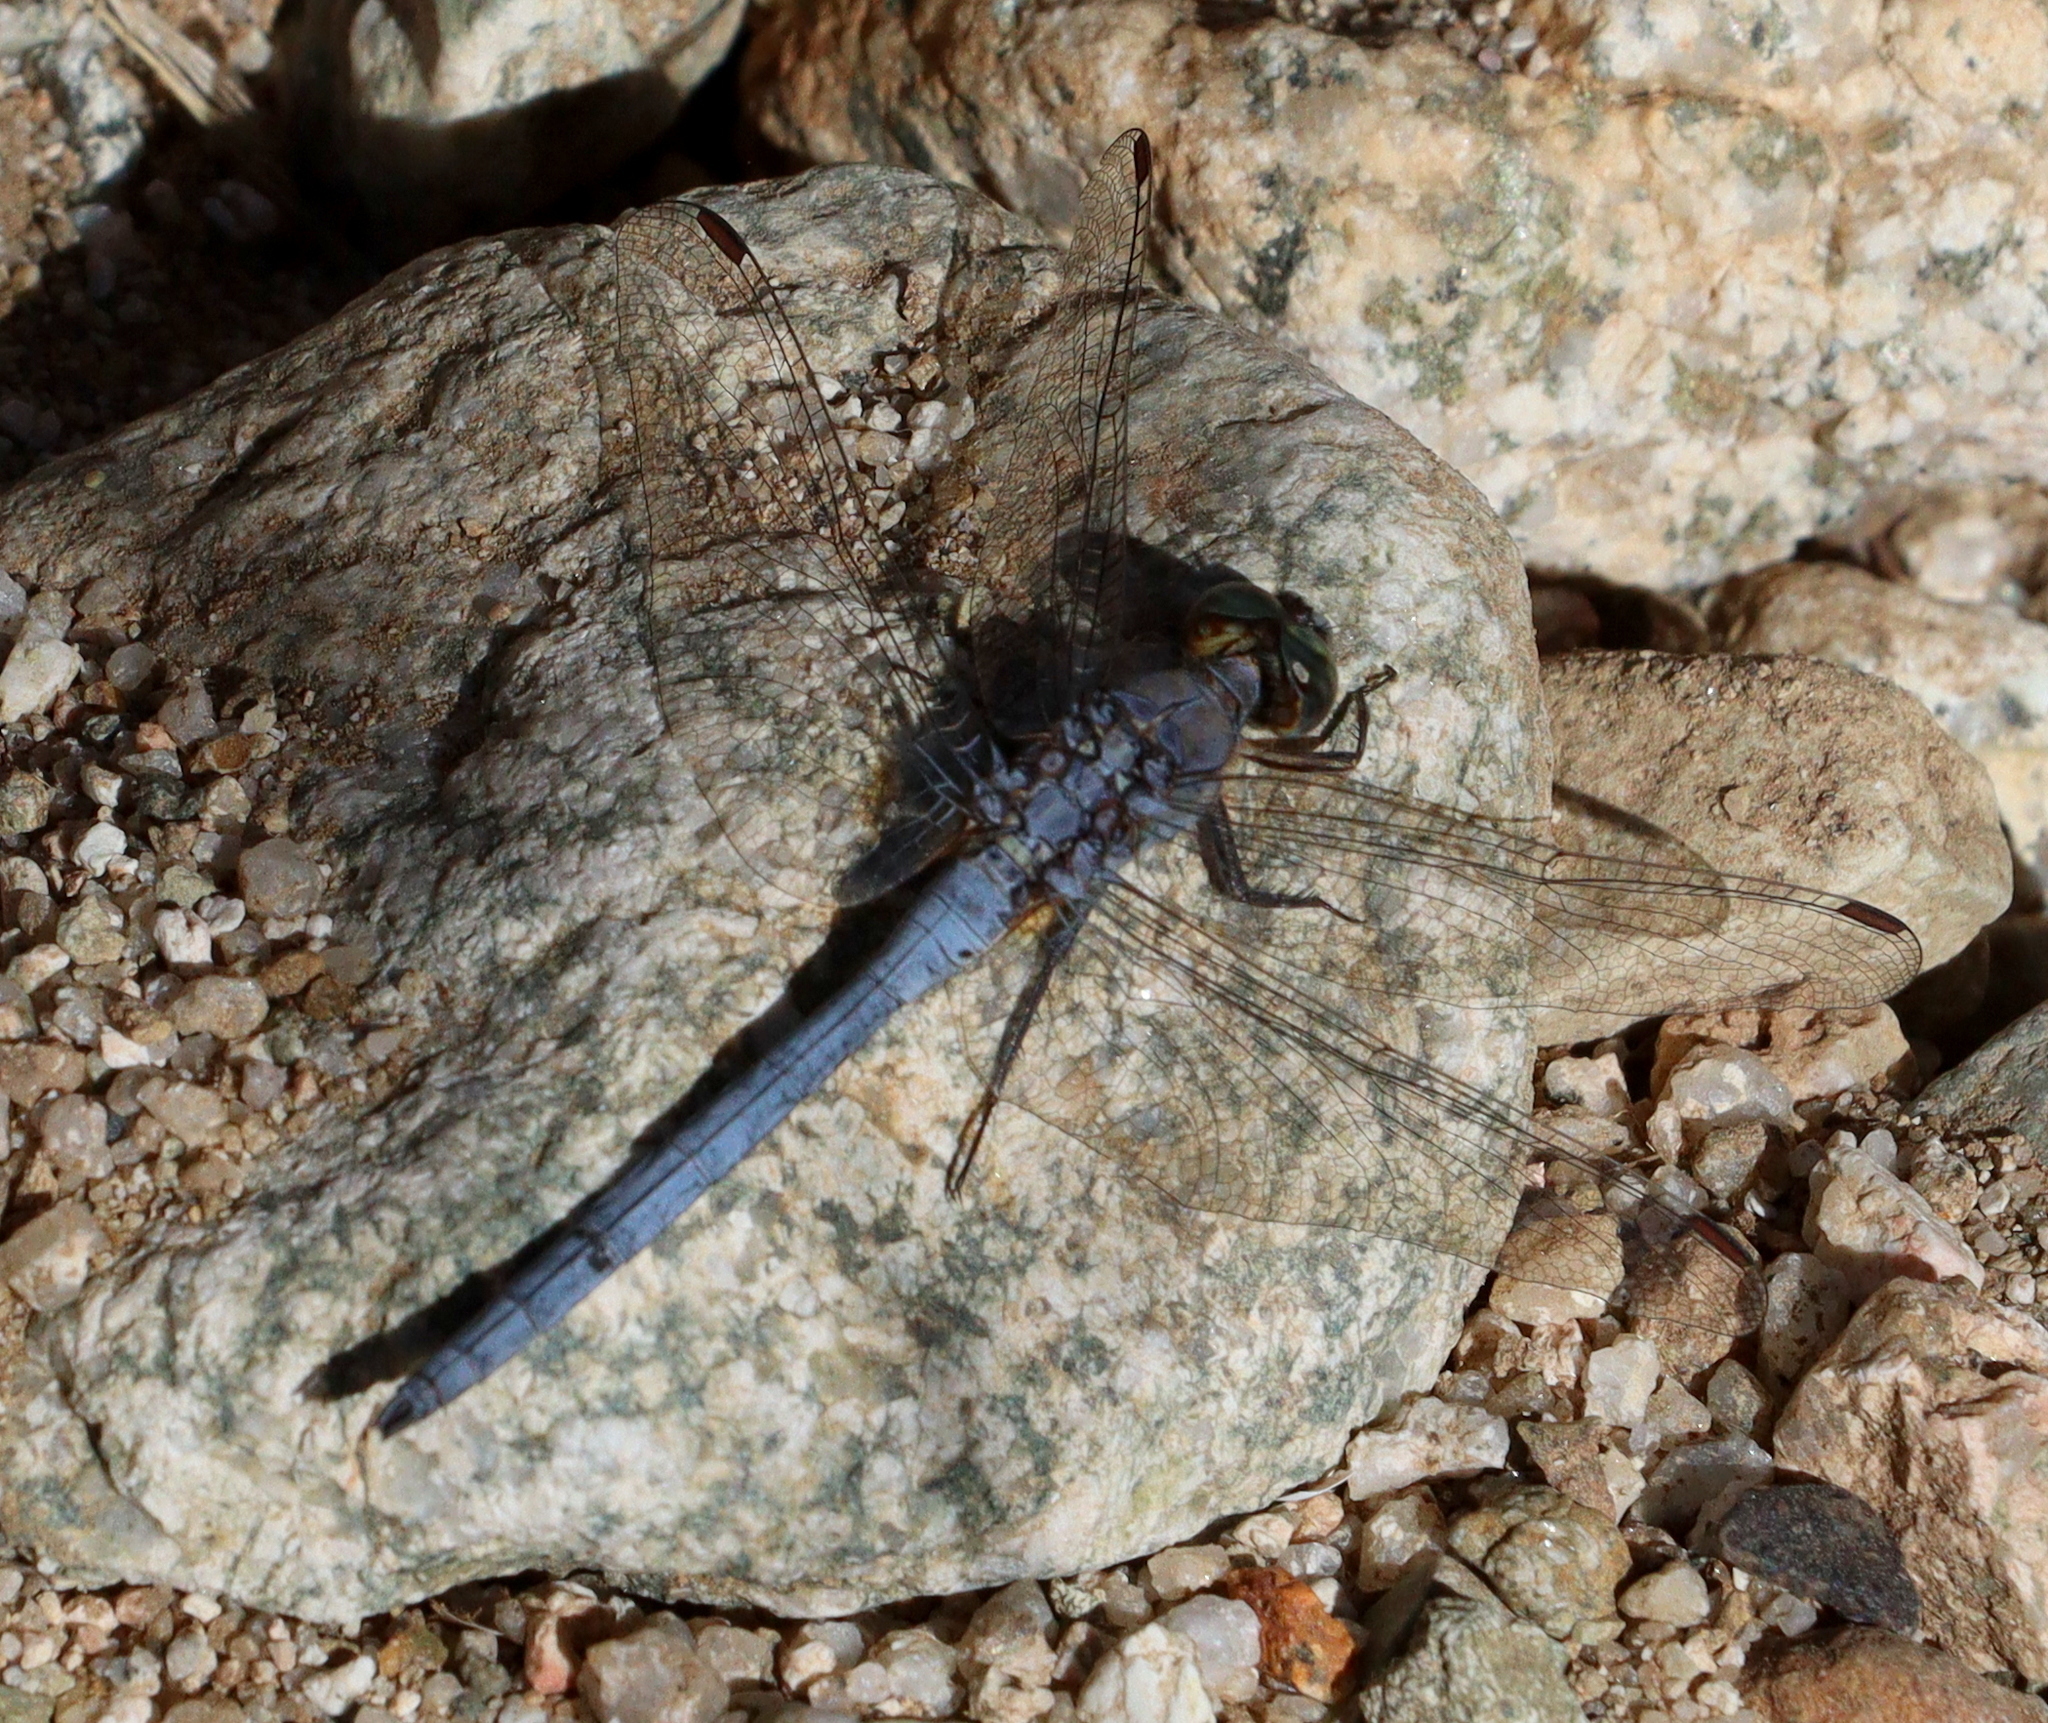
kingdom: Animalia
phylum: Arthropoda
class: Insecta
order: Odonata
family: Libellulidae
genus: Orthetrum
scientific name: Orthetrum ransonnetii
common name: Desert skimmer
